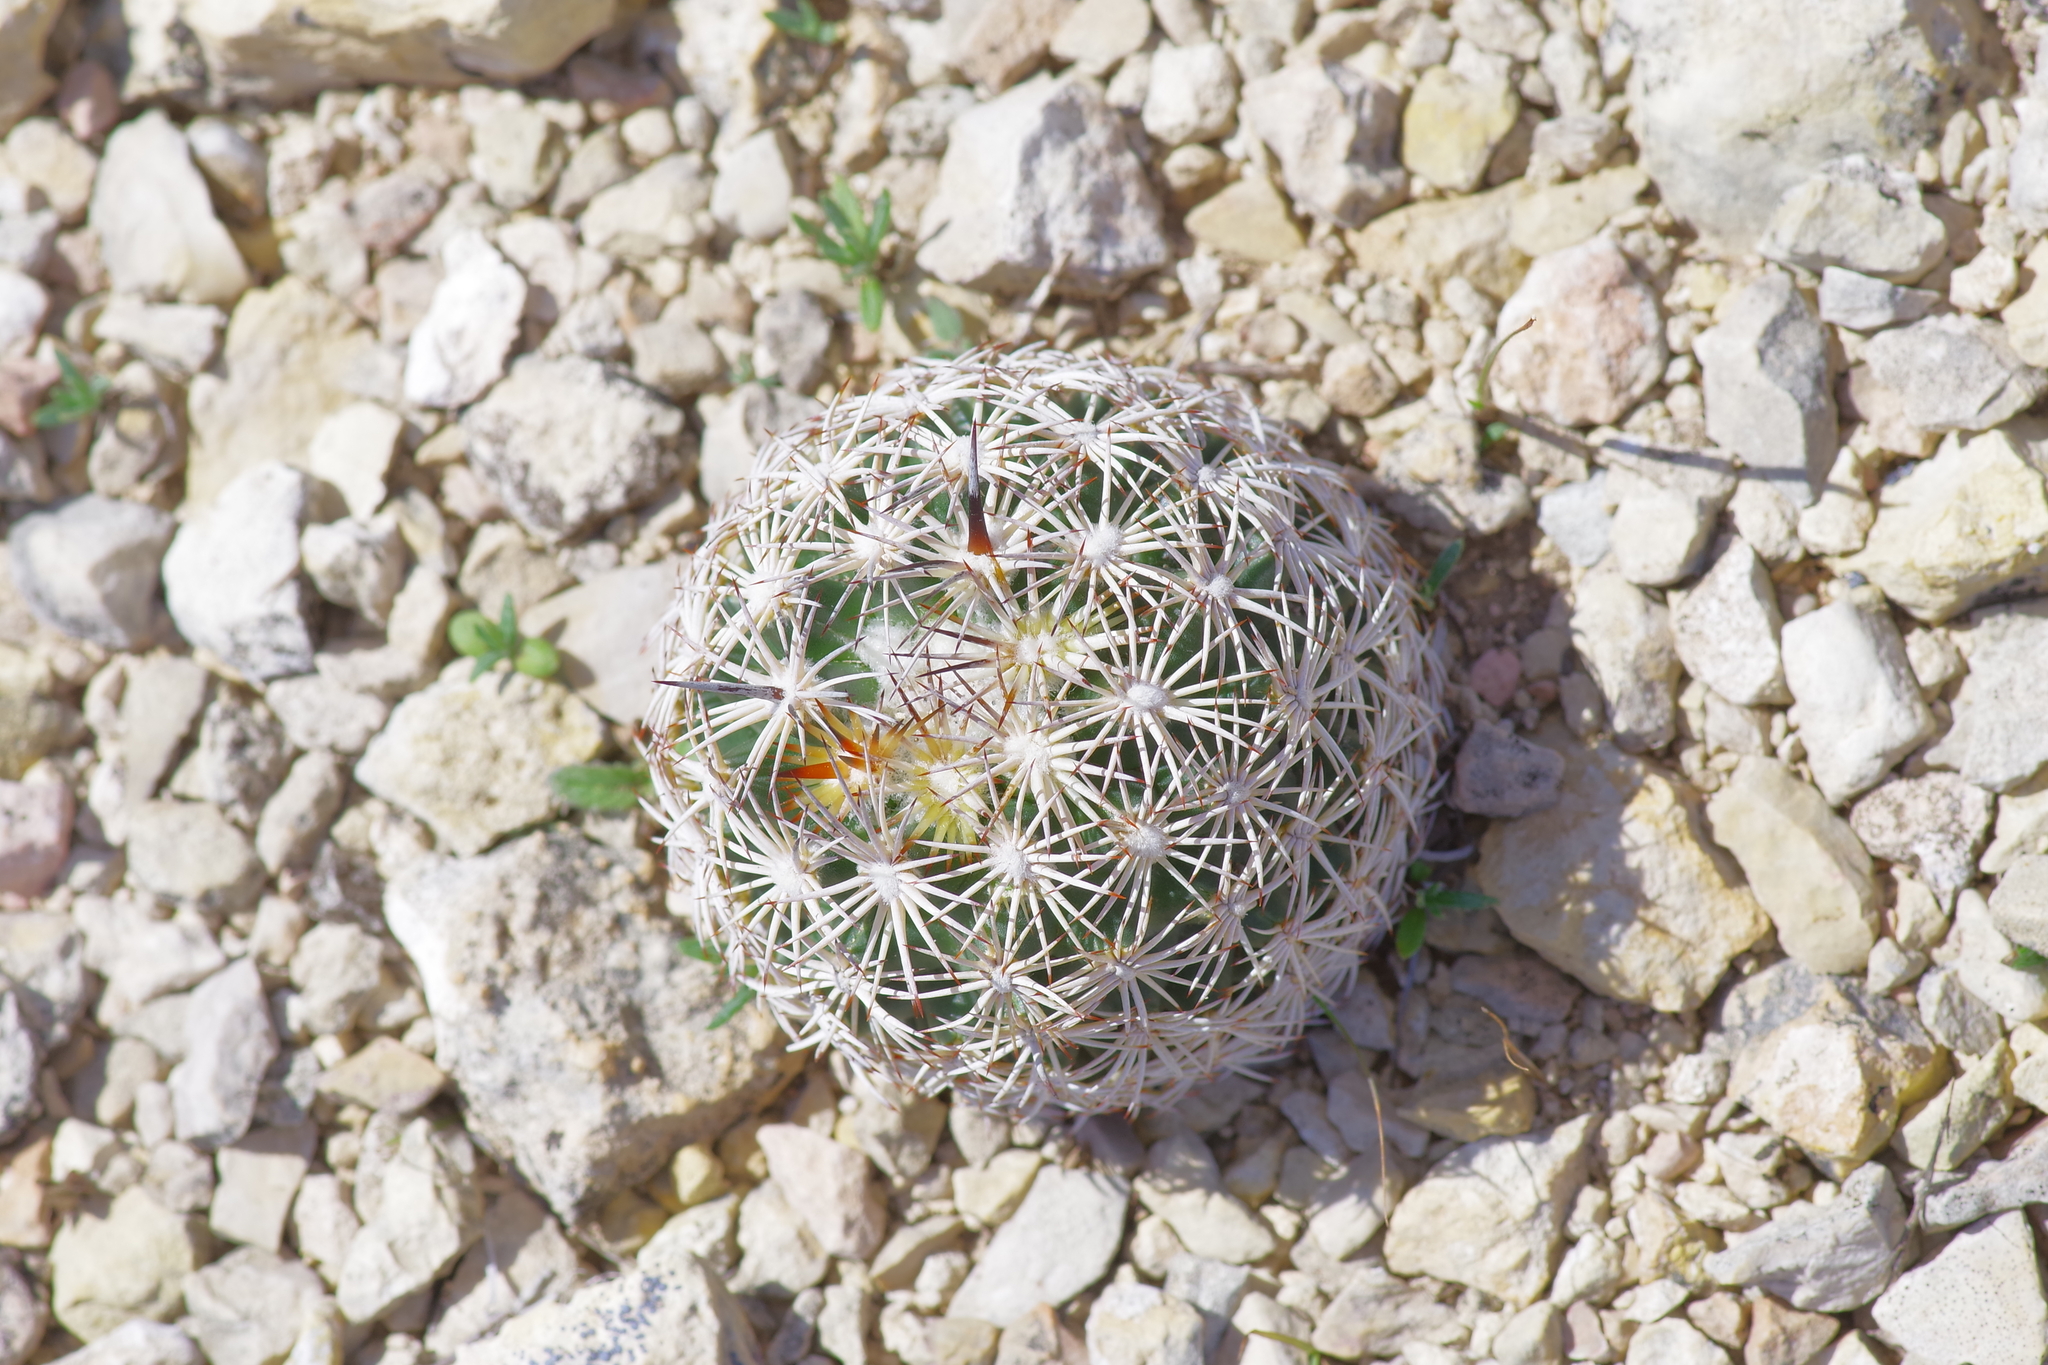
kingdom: Plantae
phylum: Tracheophyta
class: Magnoliopsida
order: Caryophyllales
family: Cactaceae
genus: Coryphantha
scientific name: Coryphantha echinus
